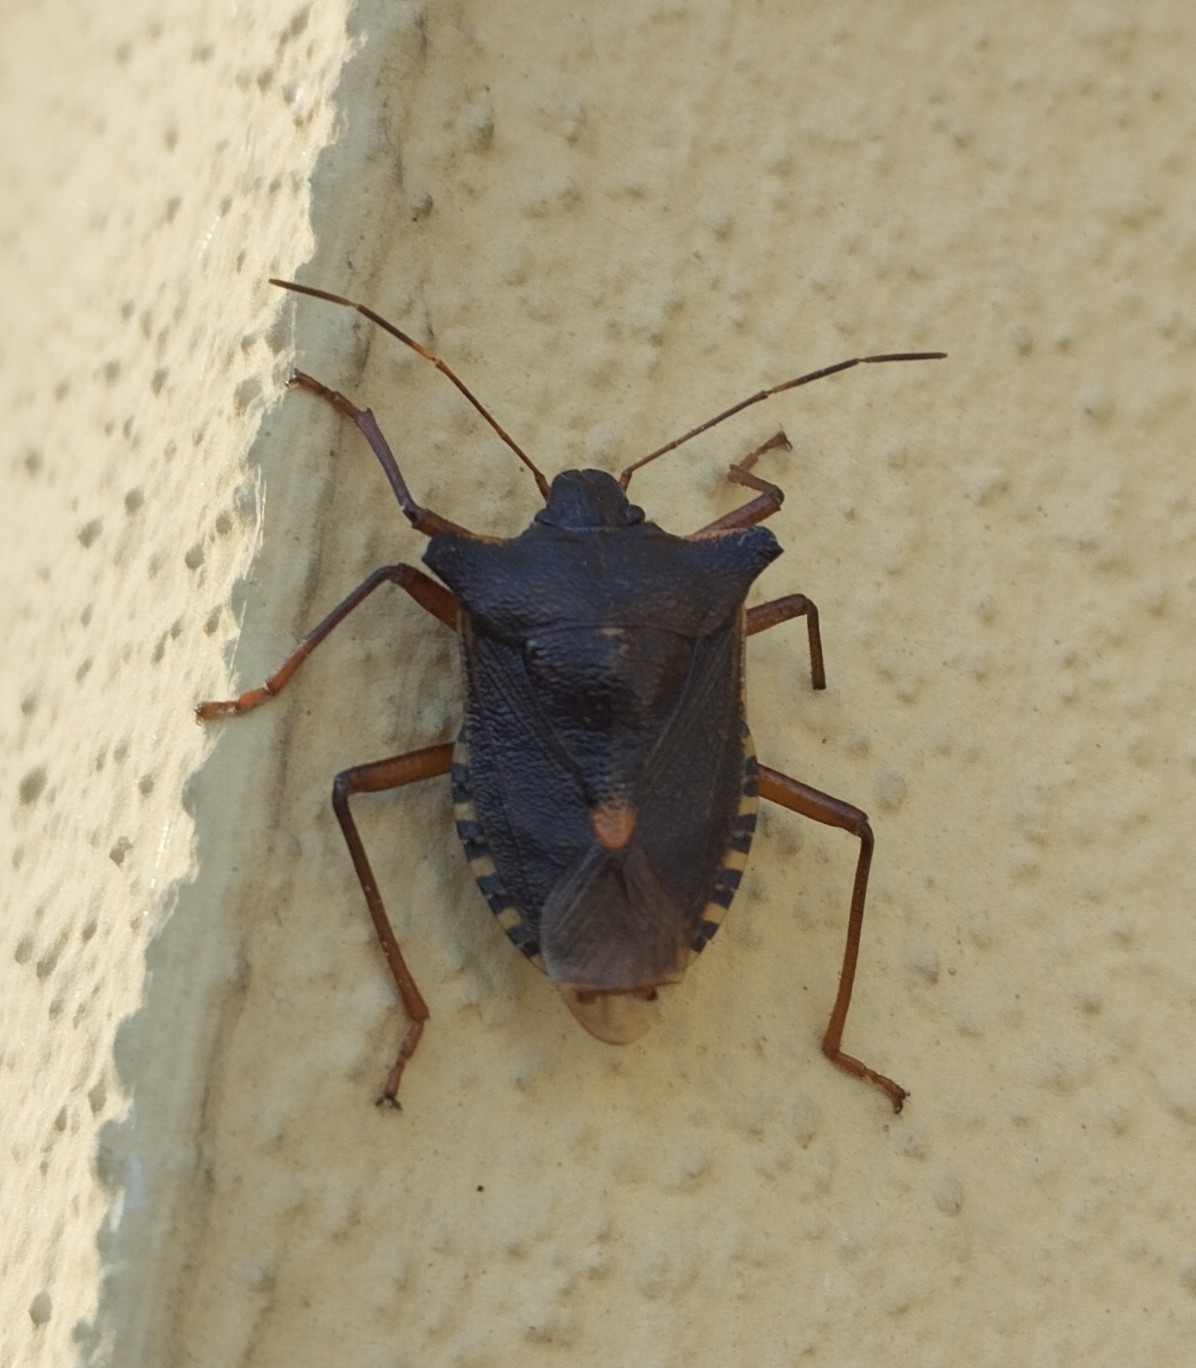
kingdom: Animalia
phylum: Arthropoda
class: Insecta
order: Hemiptera
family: Pentatomidae
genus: Pentatoma
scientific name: Pentatoma rufipes
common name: Forest bug
